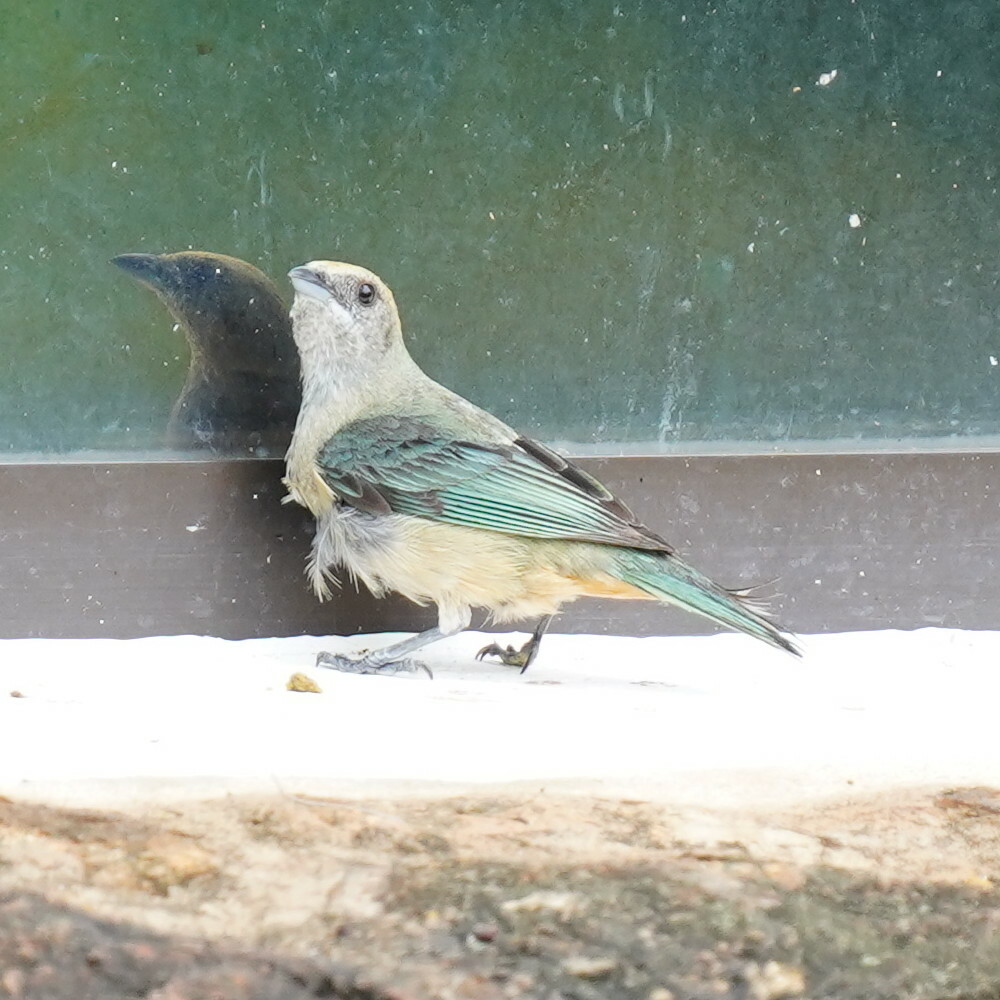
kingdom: Animalia
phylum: Chordata
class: Aves
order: Passeriformes
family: Thraupidae
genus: Stilpnia
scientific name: Stilpnia cayana
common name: Burnished-buff tanager
